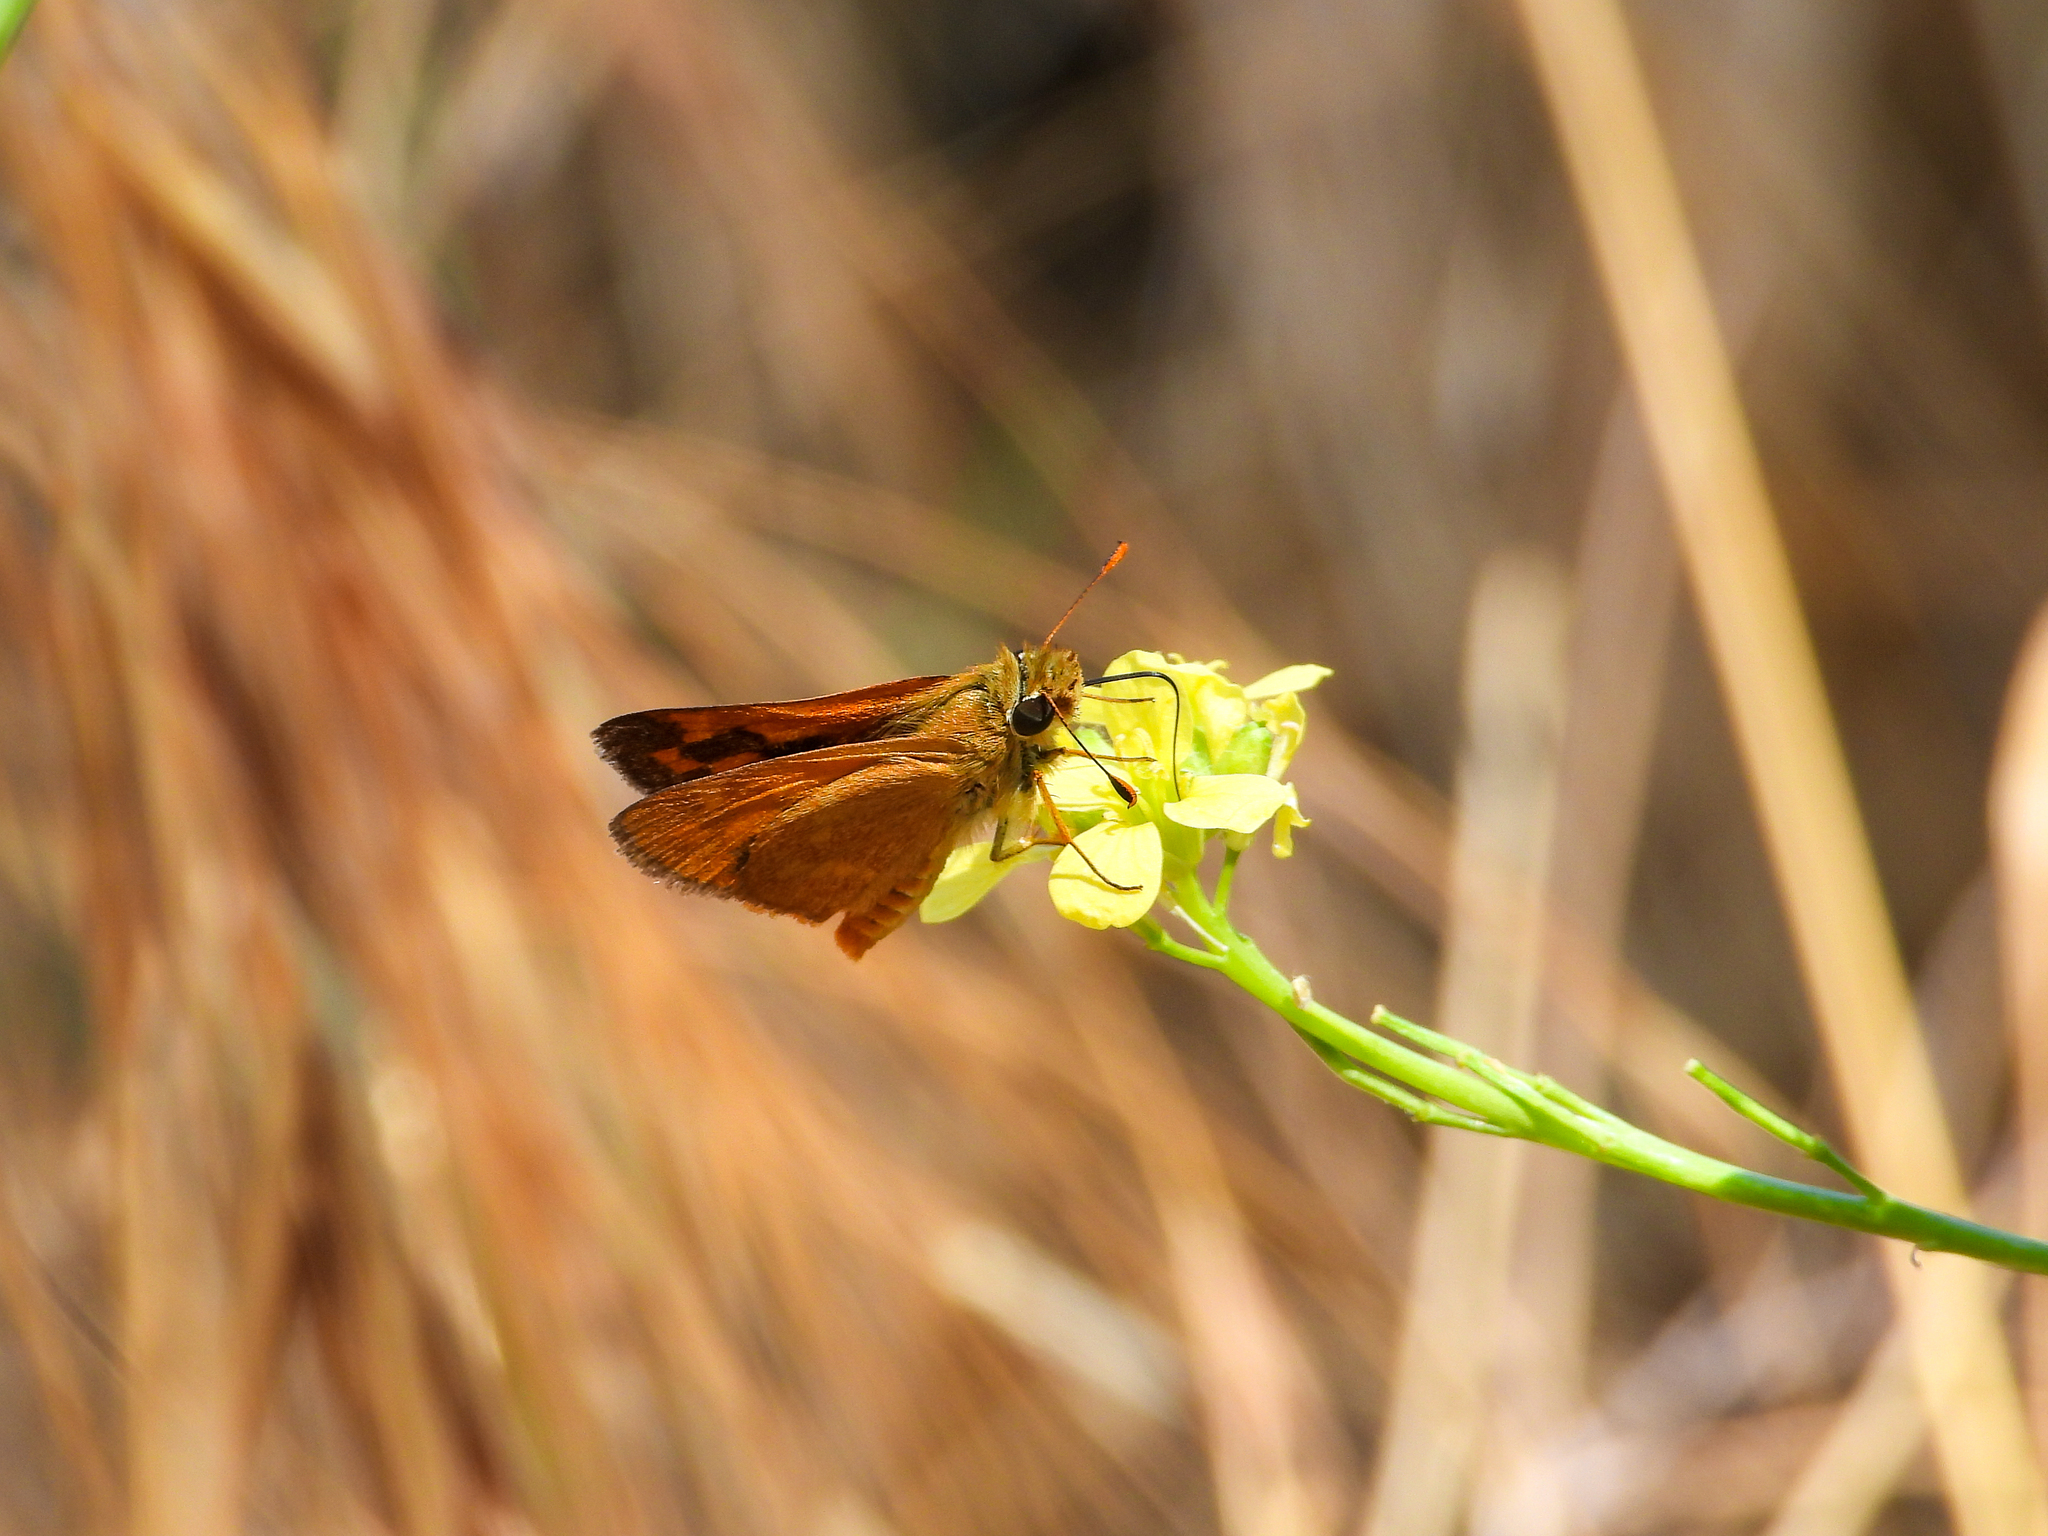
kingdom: Animalia
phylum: Arthropoda
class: Insecta
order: Lepidoptera
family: Hesperiidae
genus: Ochlodes
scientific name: Ochlodes sylvanoides
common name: Woodland skipper
